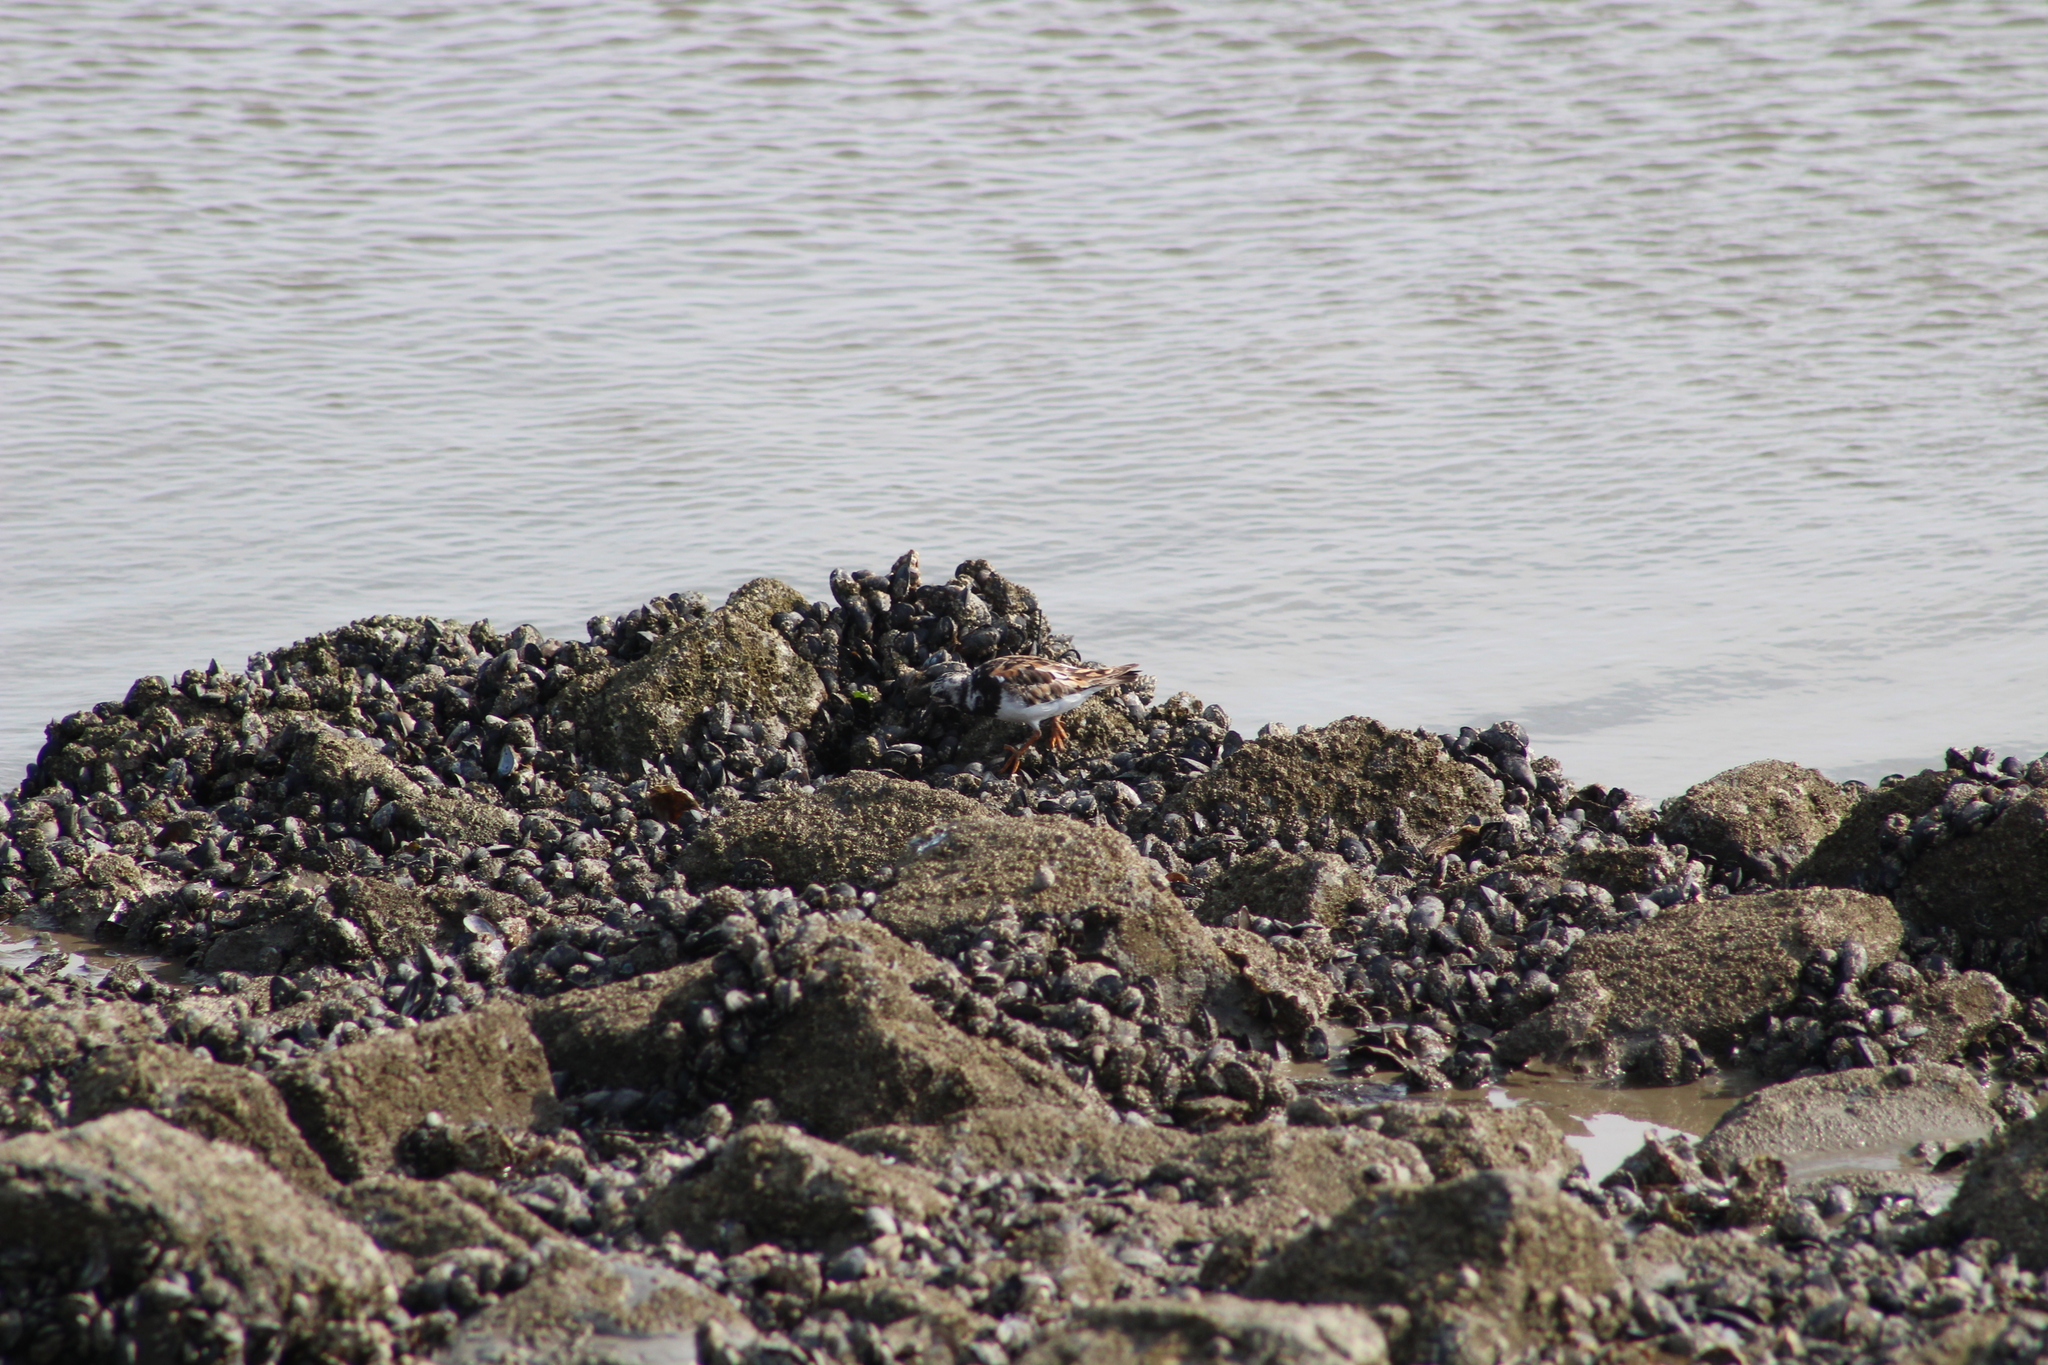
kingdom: Animalia
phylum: Chordata
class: Aves
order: Charadriiformes
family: Scolopacidae
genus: Arenaria
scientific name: Arenaria interpres
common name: Ruddy turnstone
